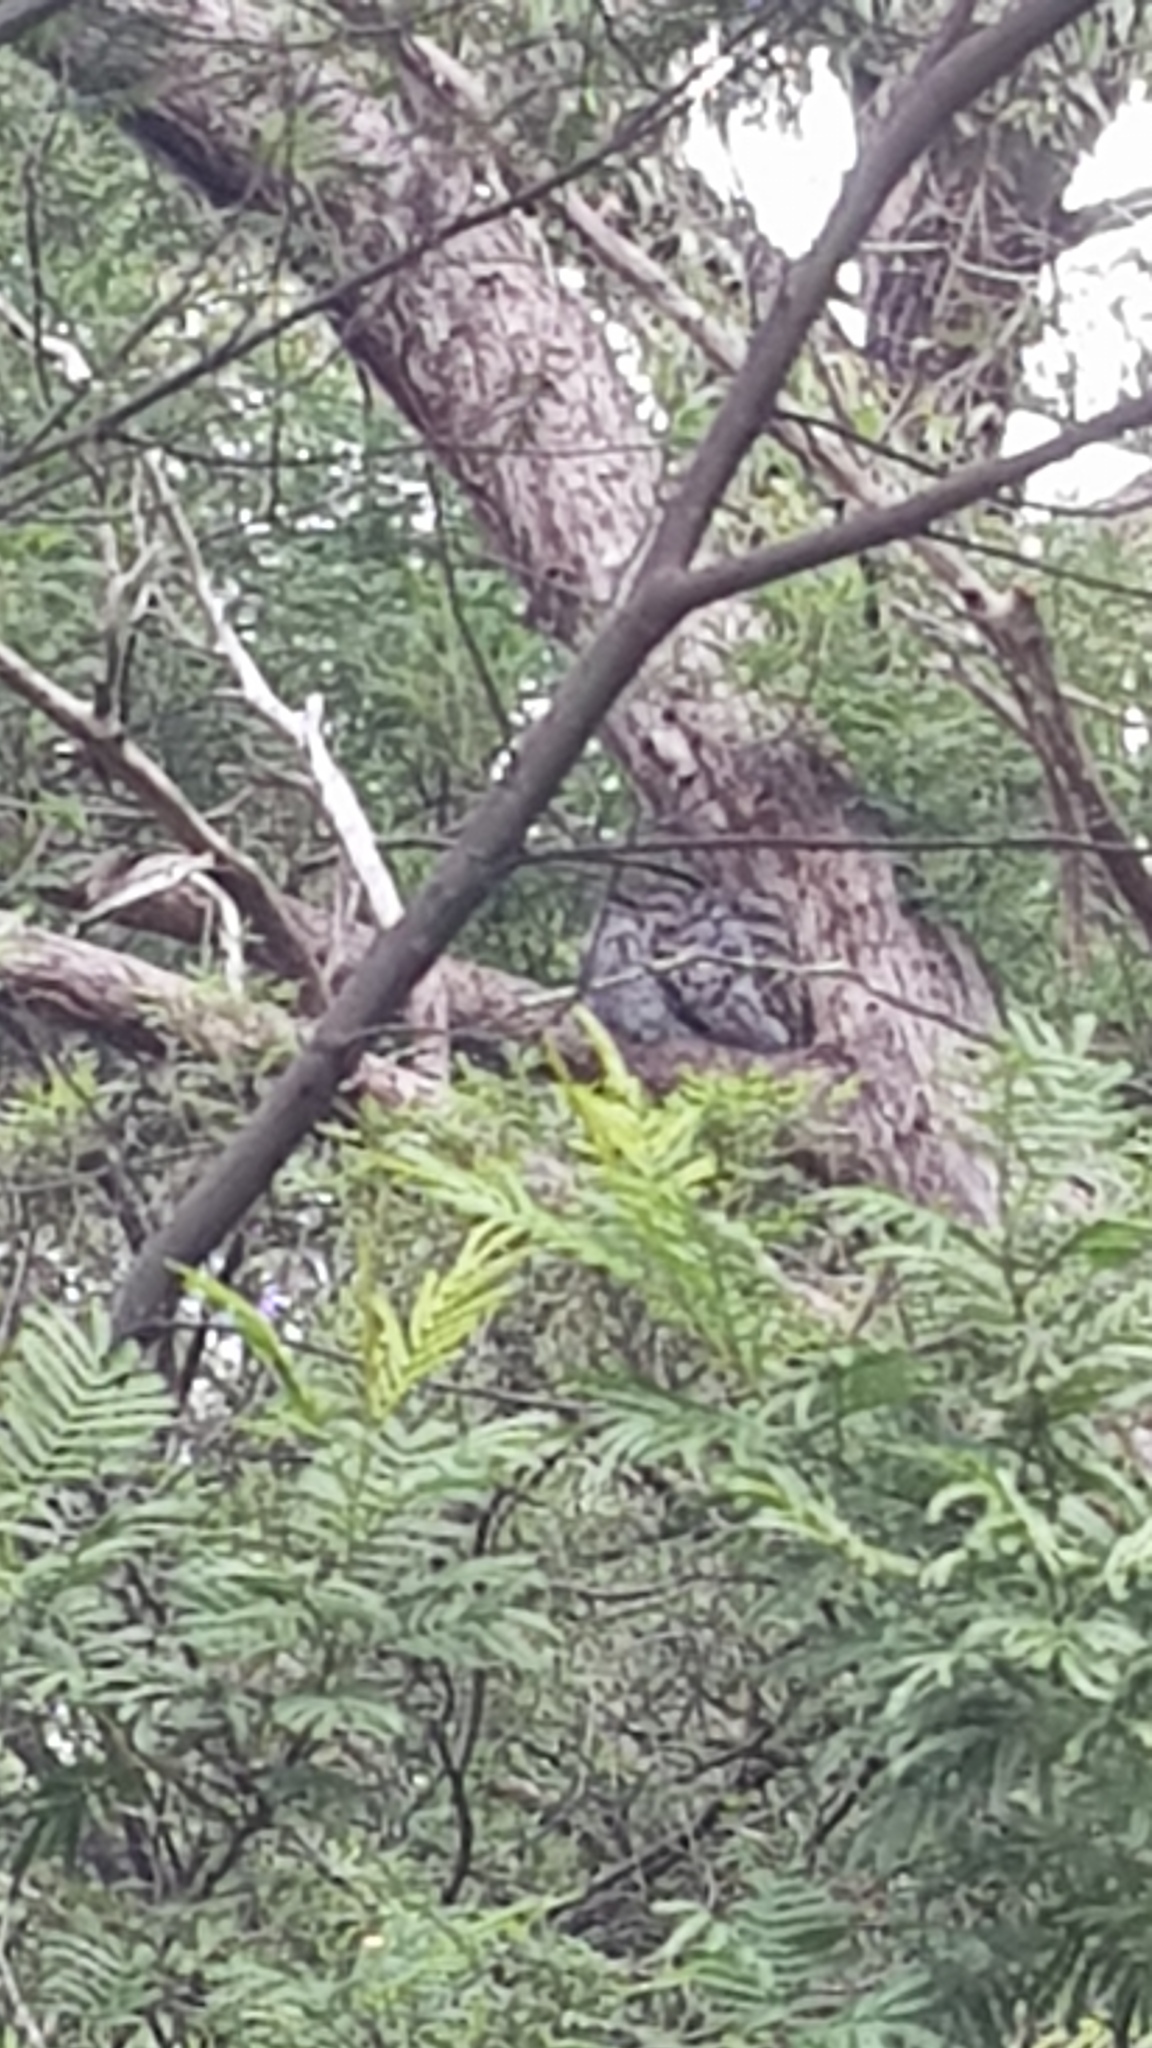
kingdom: Animalia
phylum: Chordata
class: Aves
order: Caprimulgiformes
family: Podargidae
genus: Podargus
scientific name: Podargus strigoides
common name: Tawny frogmouth
